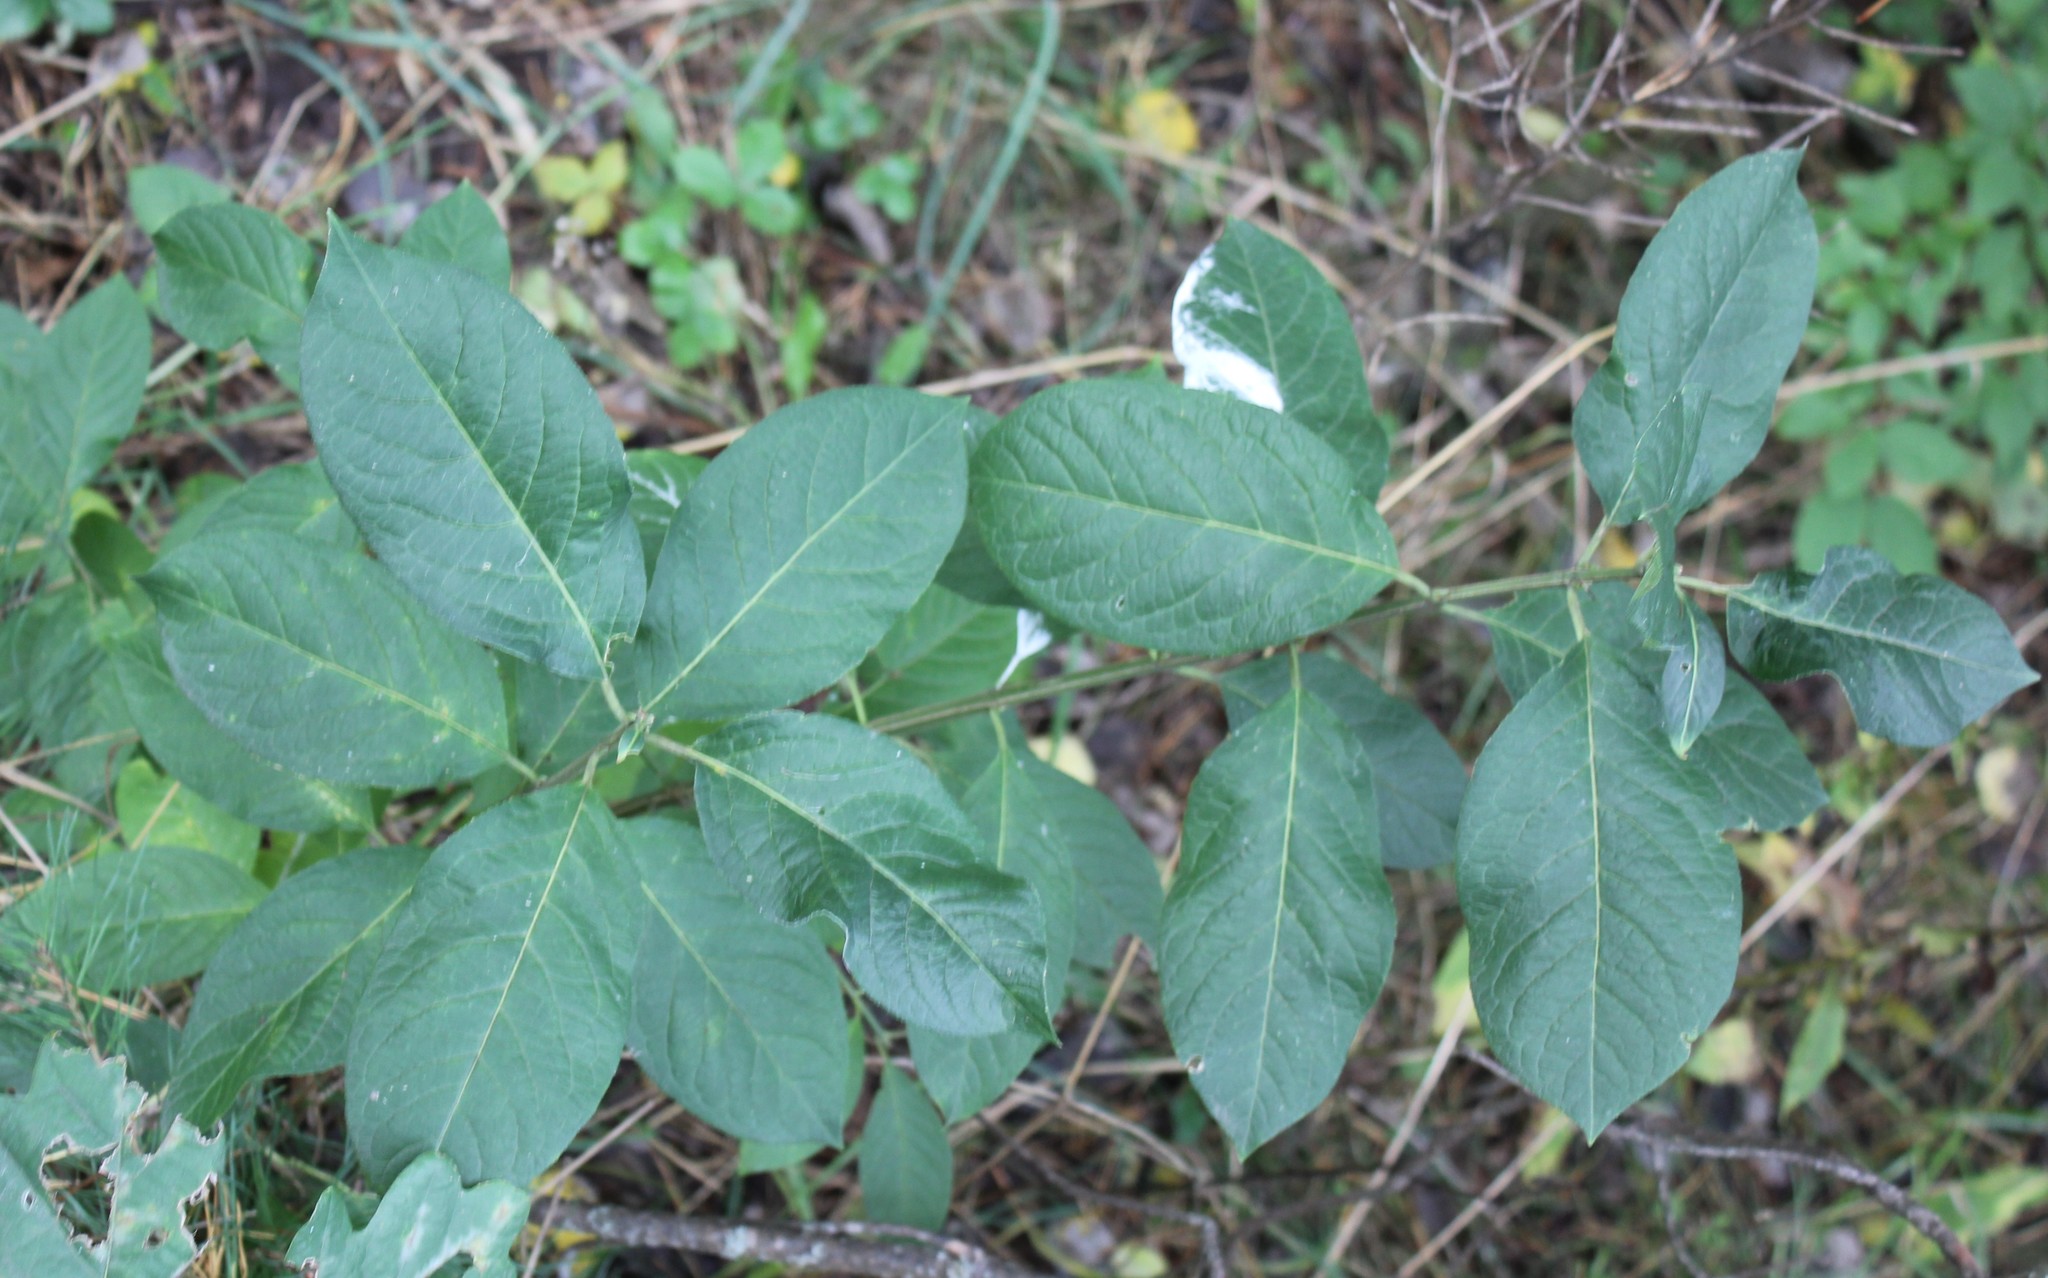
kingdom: Plantae
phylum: Tracheophyta
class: Magnoliopsida
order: Celastrales
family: Celastraceae
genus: Euonymus
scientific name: Euonymus europaeus
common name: Spindle
